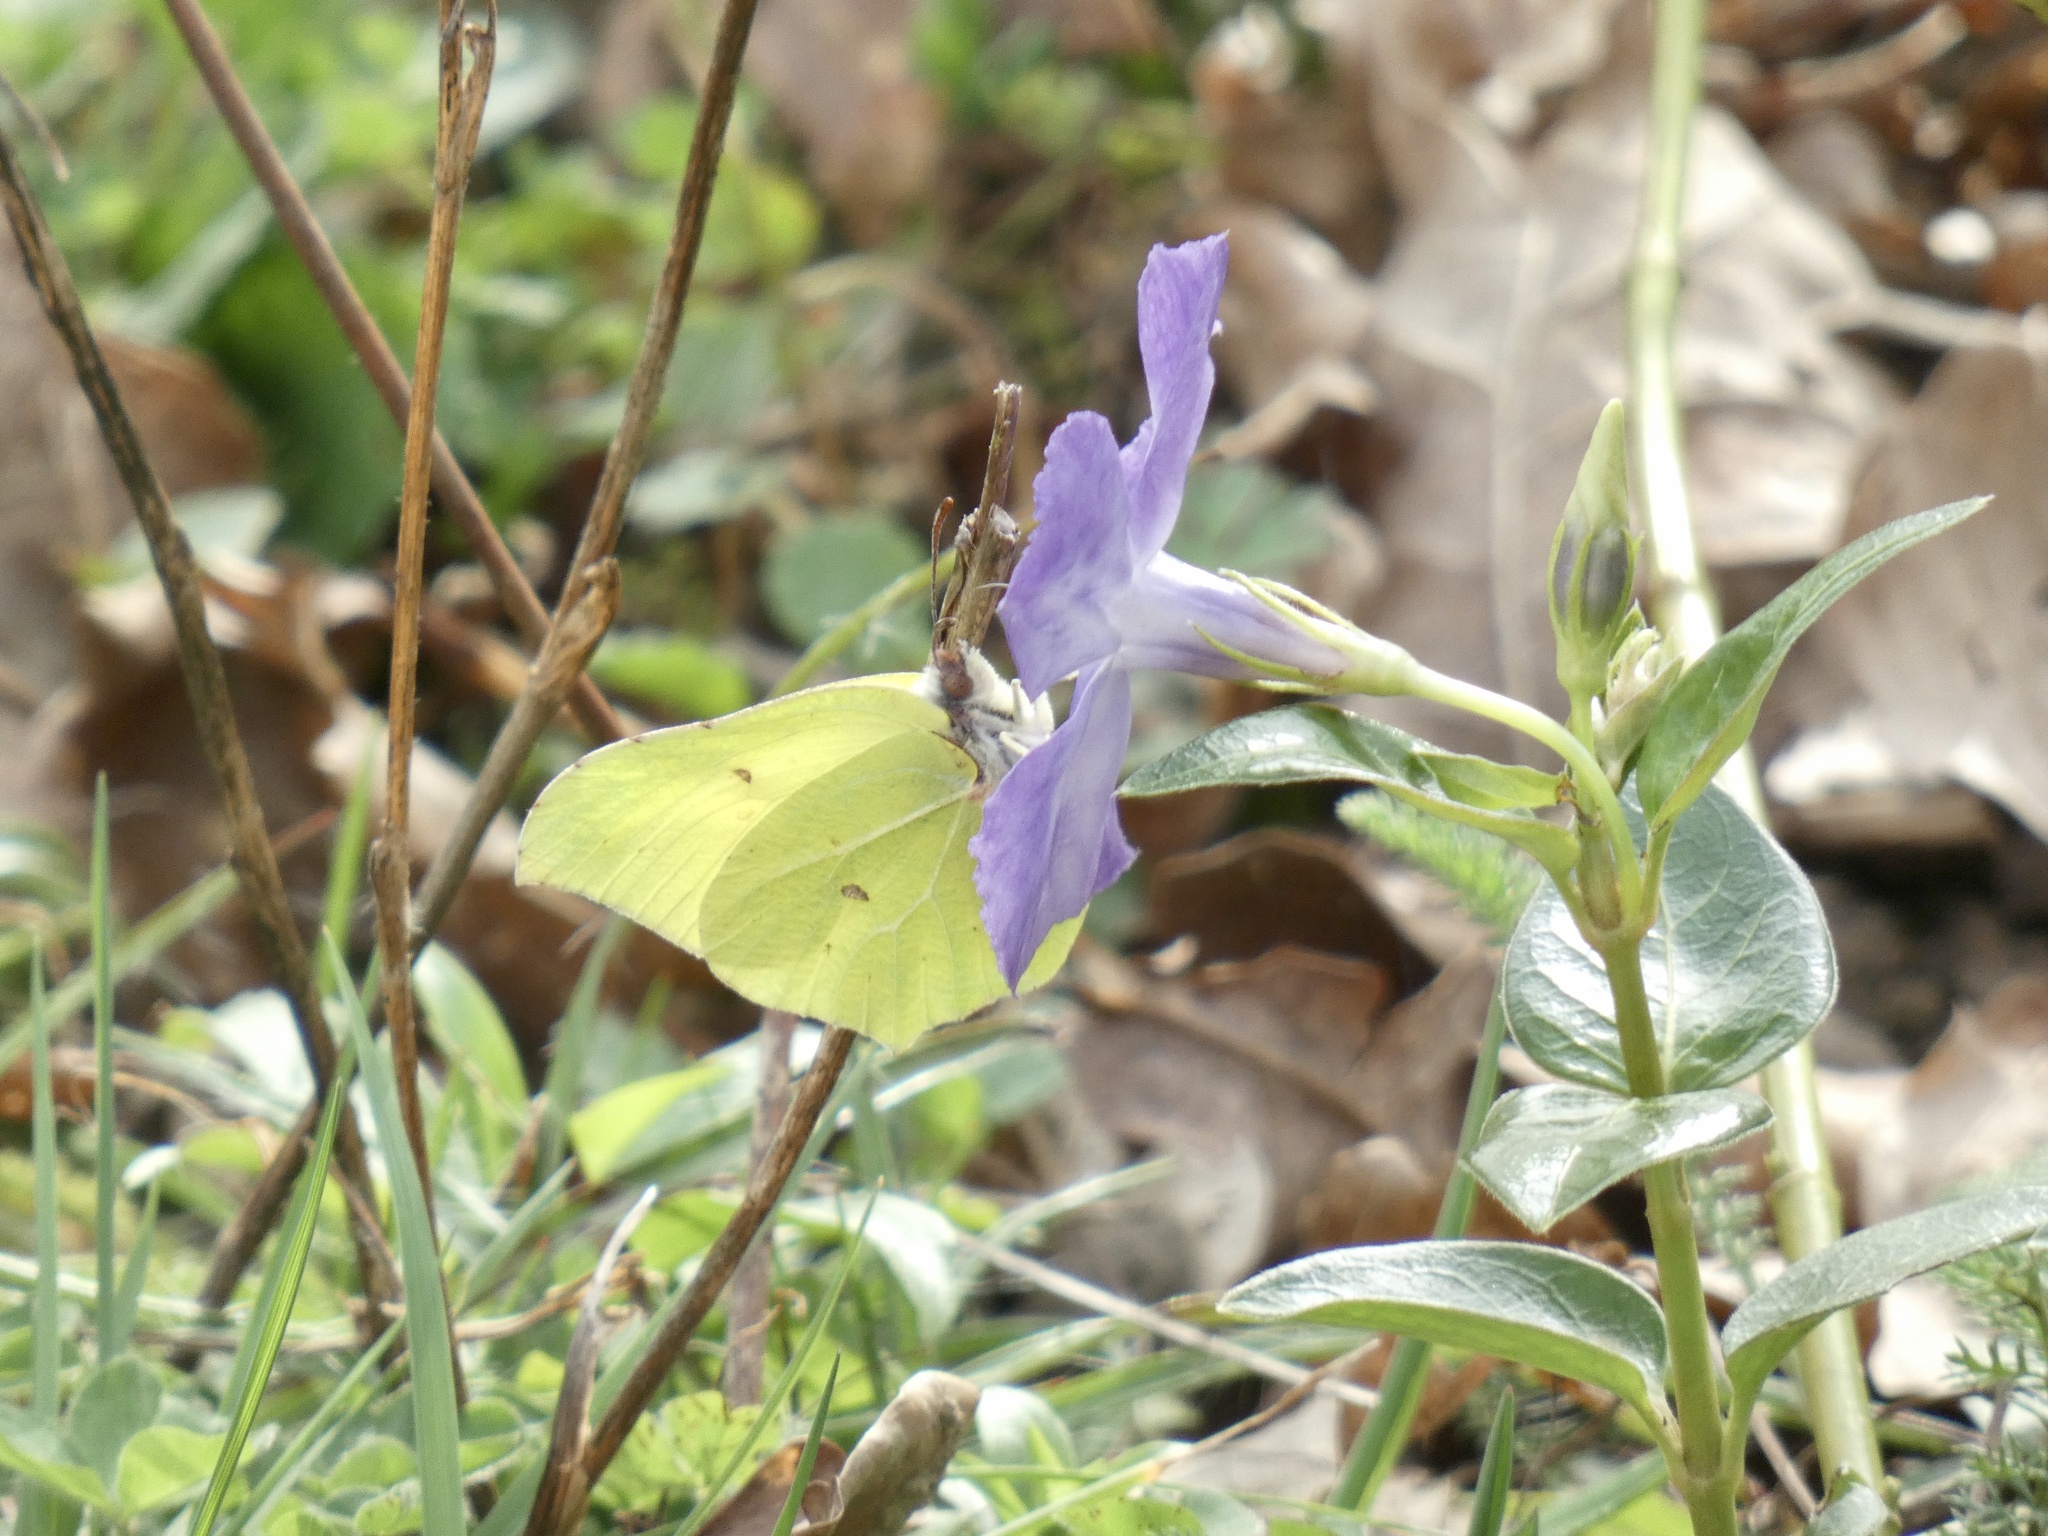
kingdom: Animalia
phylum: Arthropoda
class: Insecta
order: Lepidoptera
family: Pieridae
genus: Gonepteryx
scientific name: Gonepteryx rhamni
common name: Brimstone
